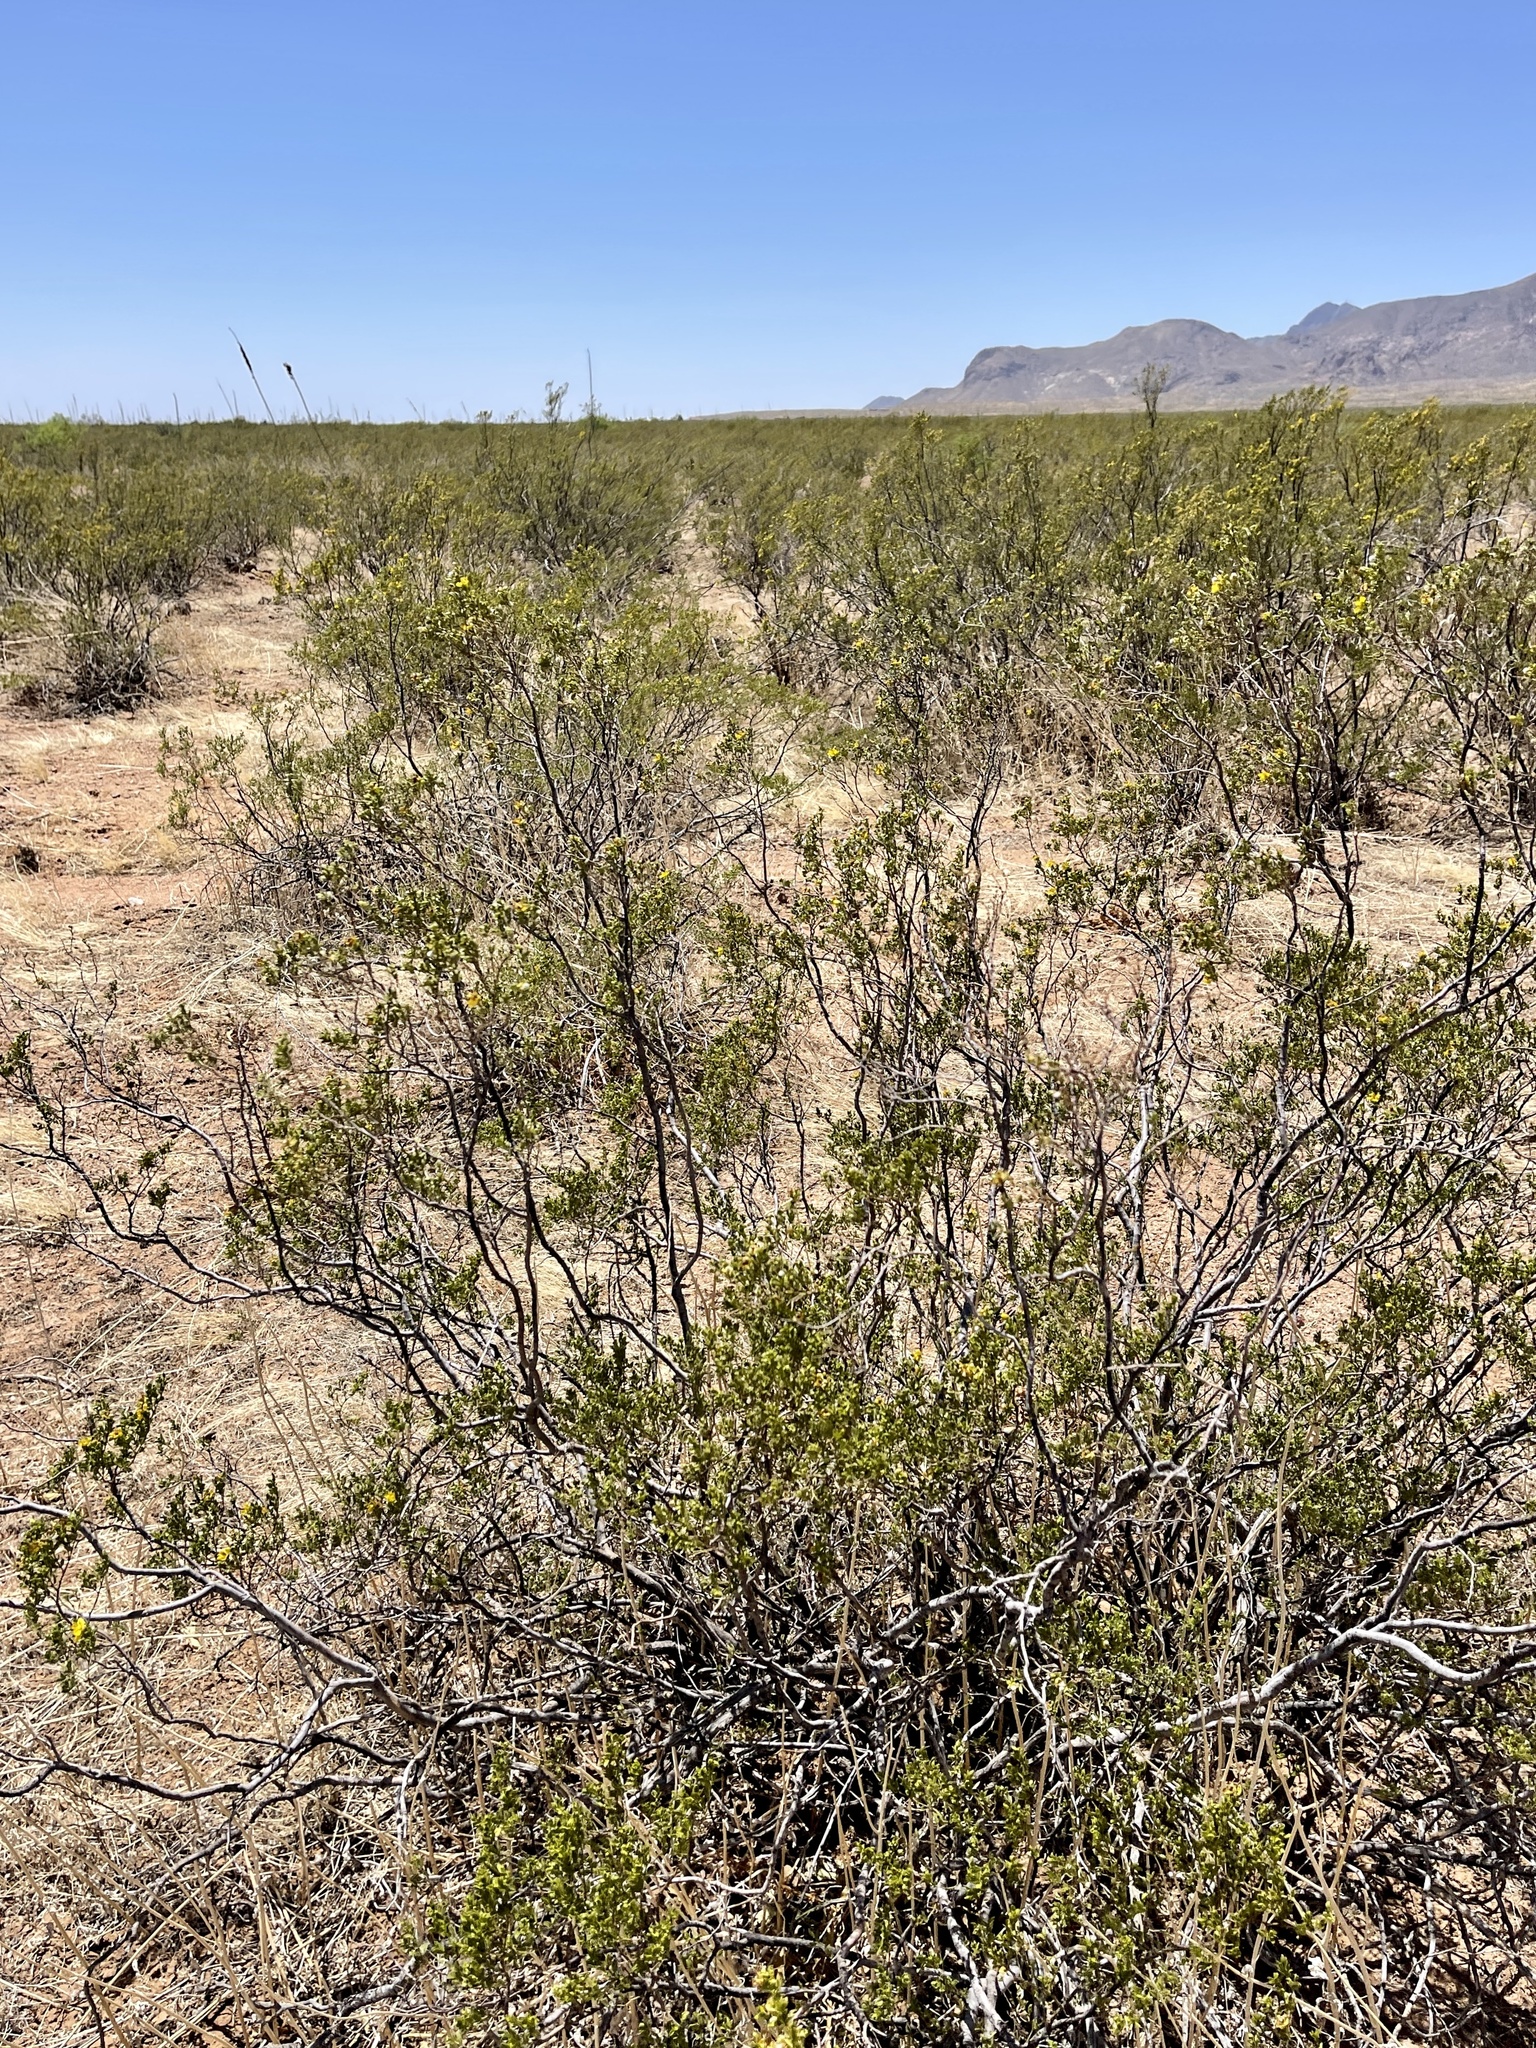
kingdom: Plantae
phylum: Tracheophyta
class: Magnoliopsida
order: Zygophyllales
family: Zygophyllaceae
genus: Larrea
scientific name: Larrea tridentata
